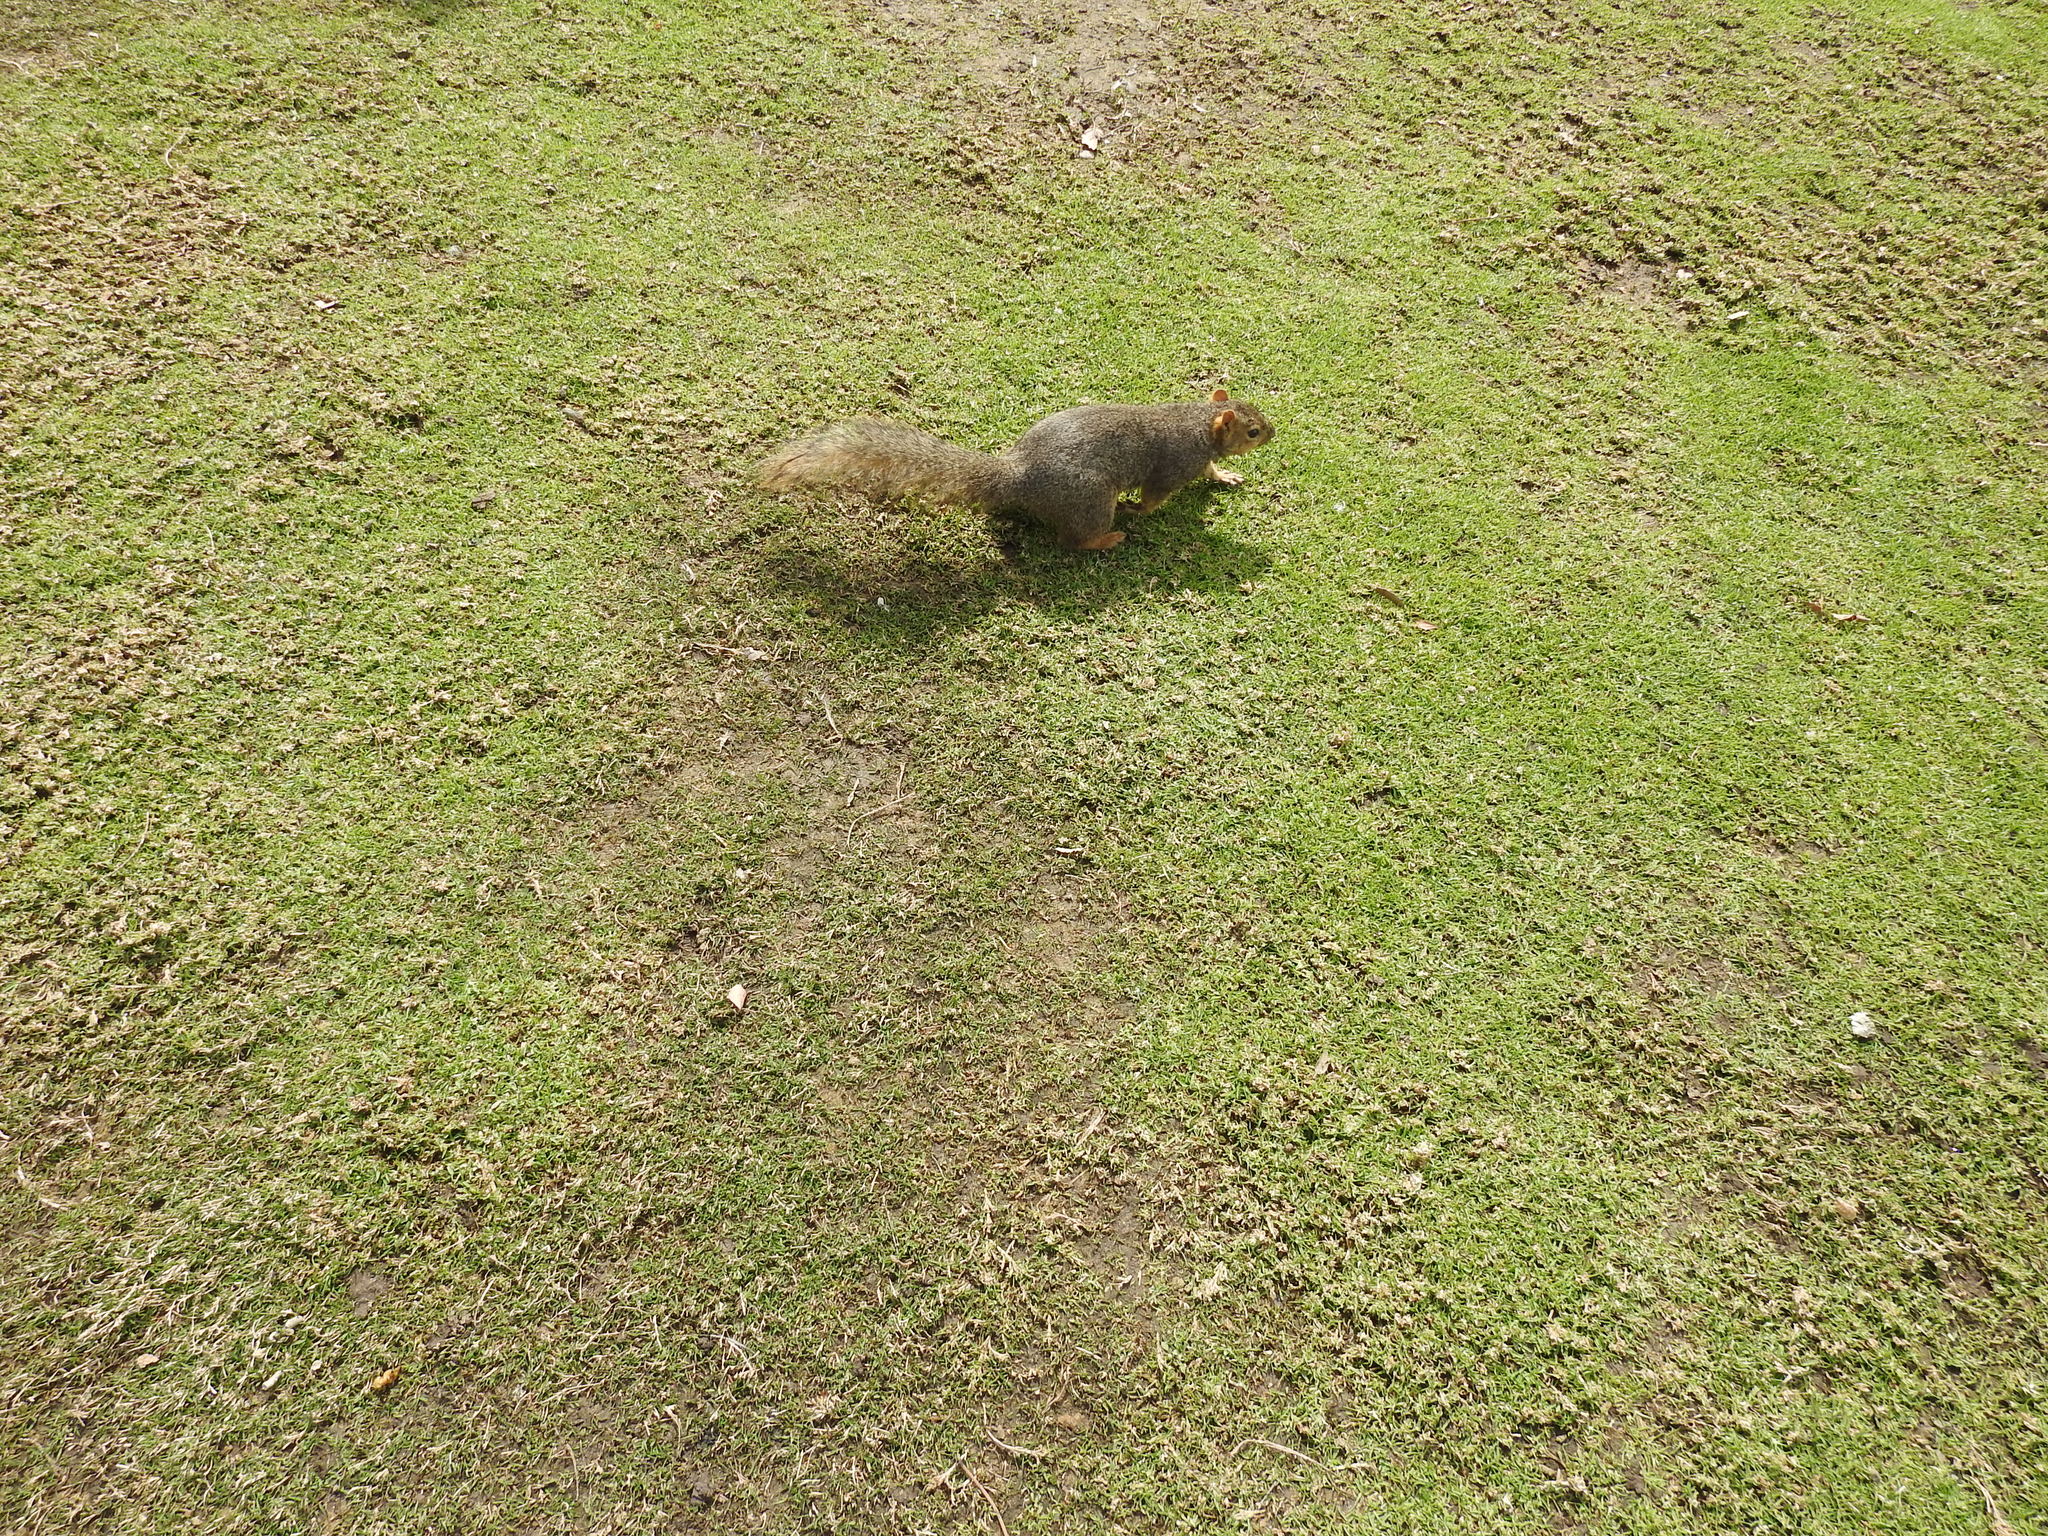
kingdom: Animalia
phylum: Chordata
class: Mammalia
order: Rodentia
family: Sciuridae
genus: Sciurus
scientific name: Sciurus niger
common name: Fox squirrel
